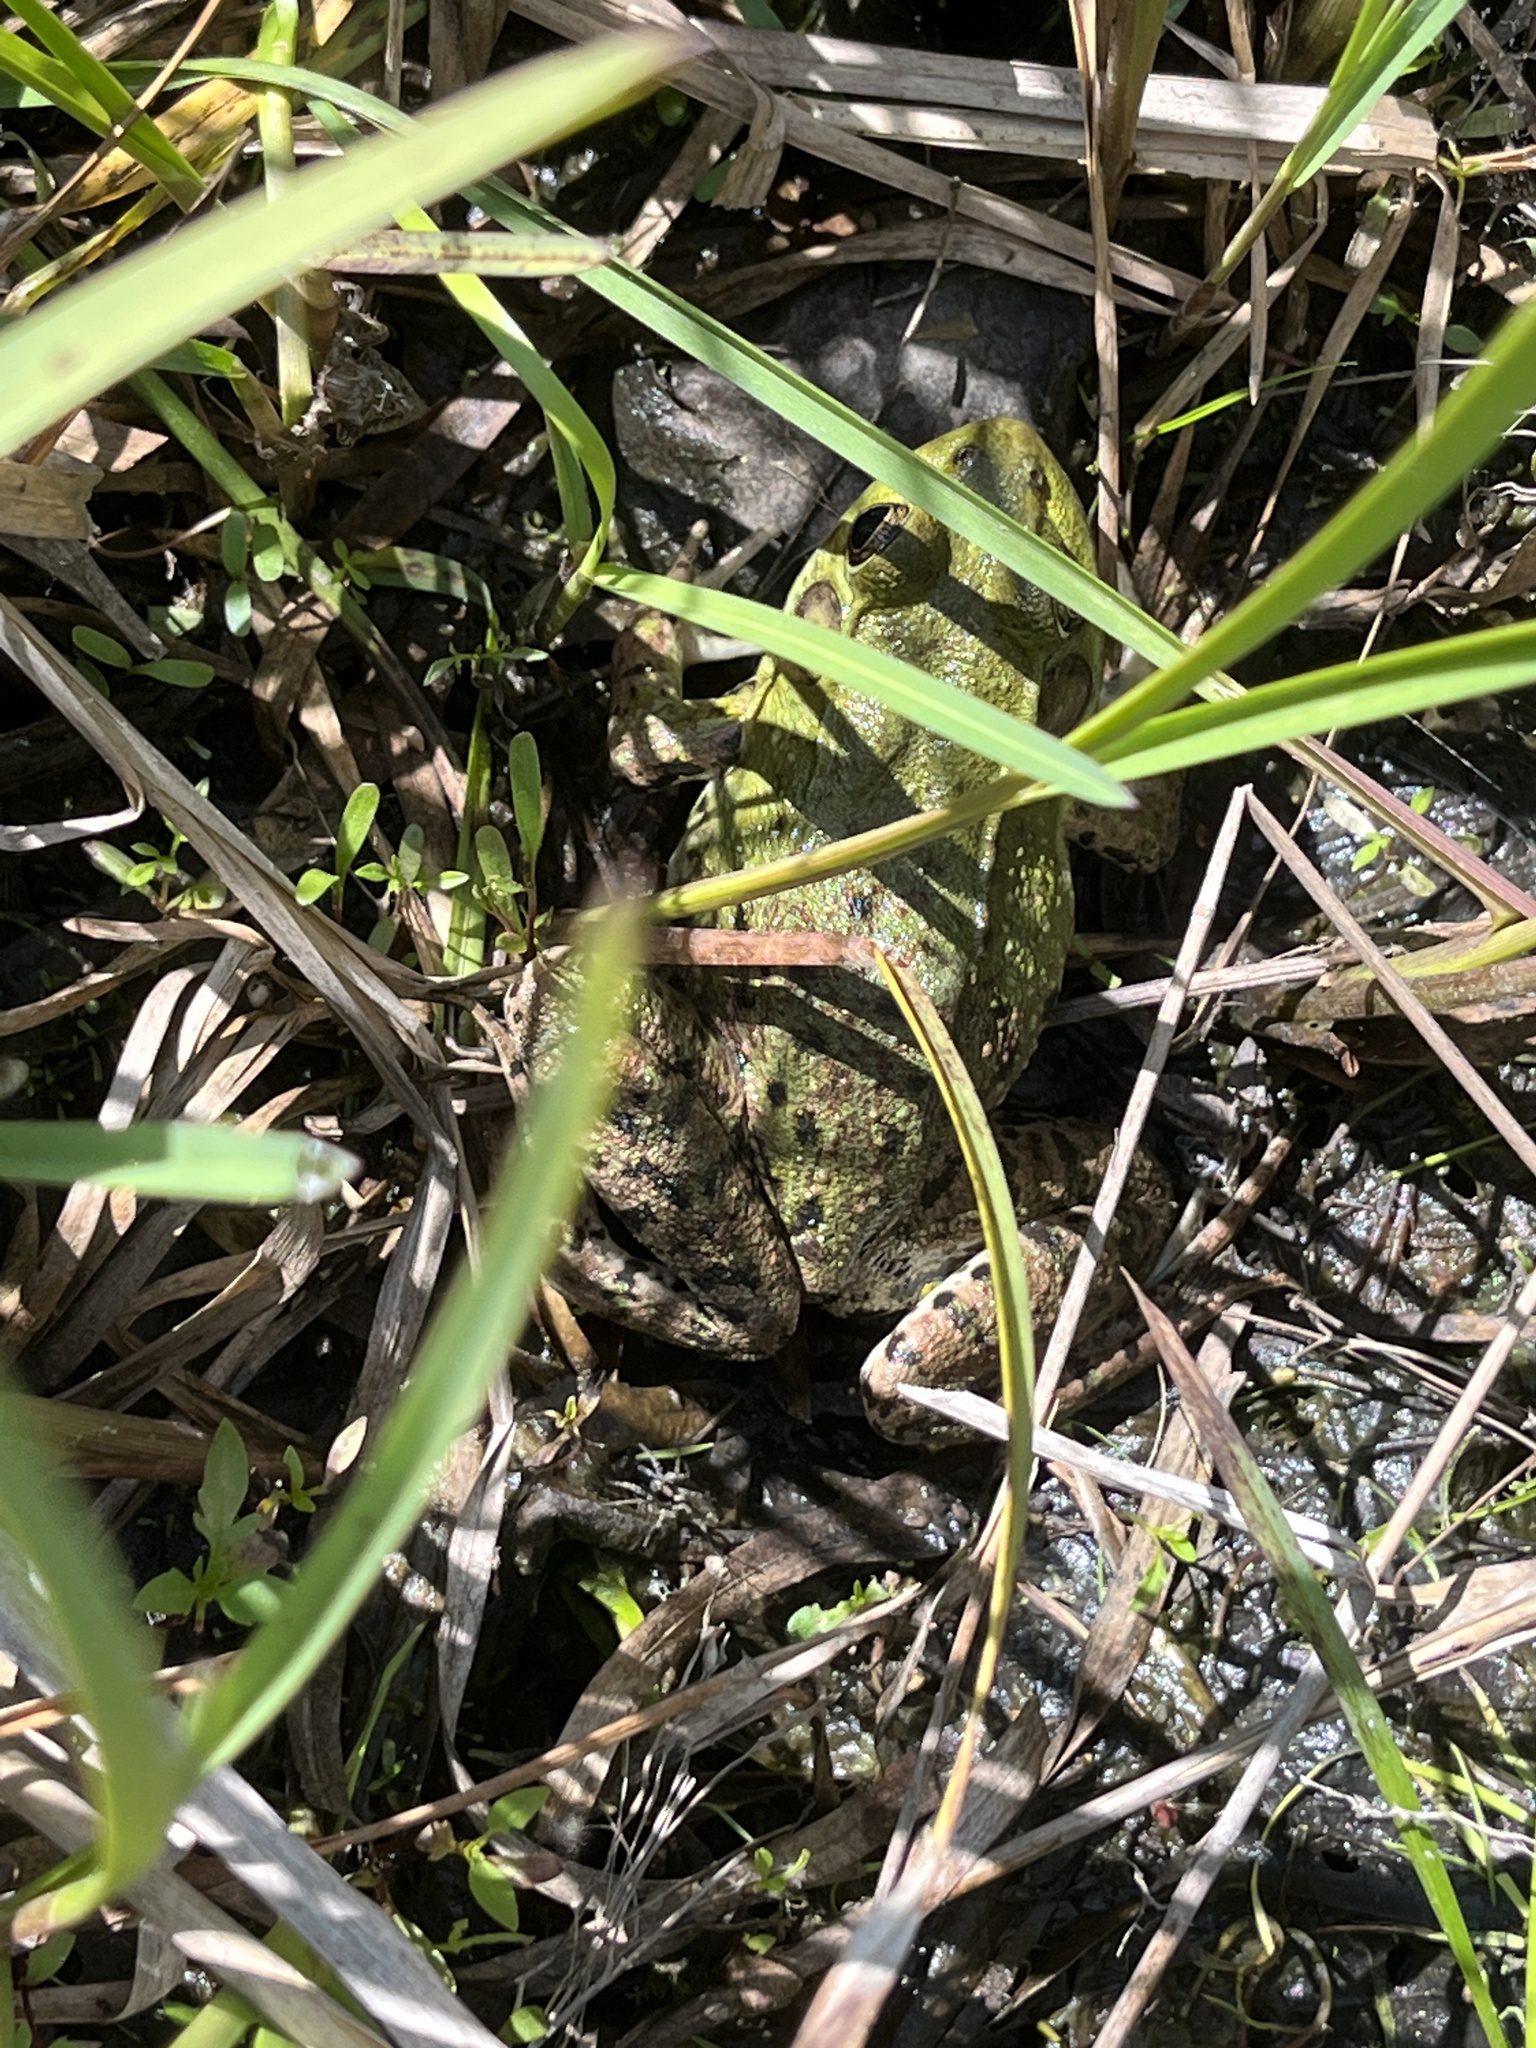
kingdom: Animalia
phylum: Chordata
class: Amphibia
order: Anura
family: Ranidae
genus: Lithobates
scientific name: Lithobates clamitans
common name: Green frog
